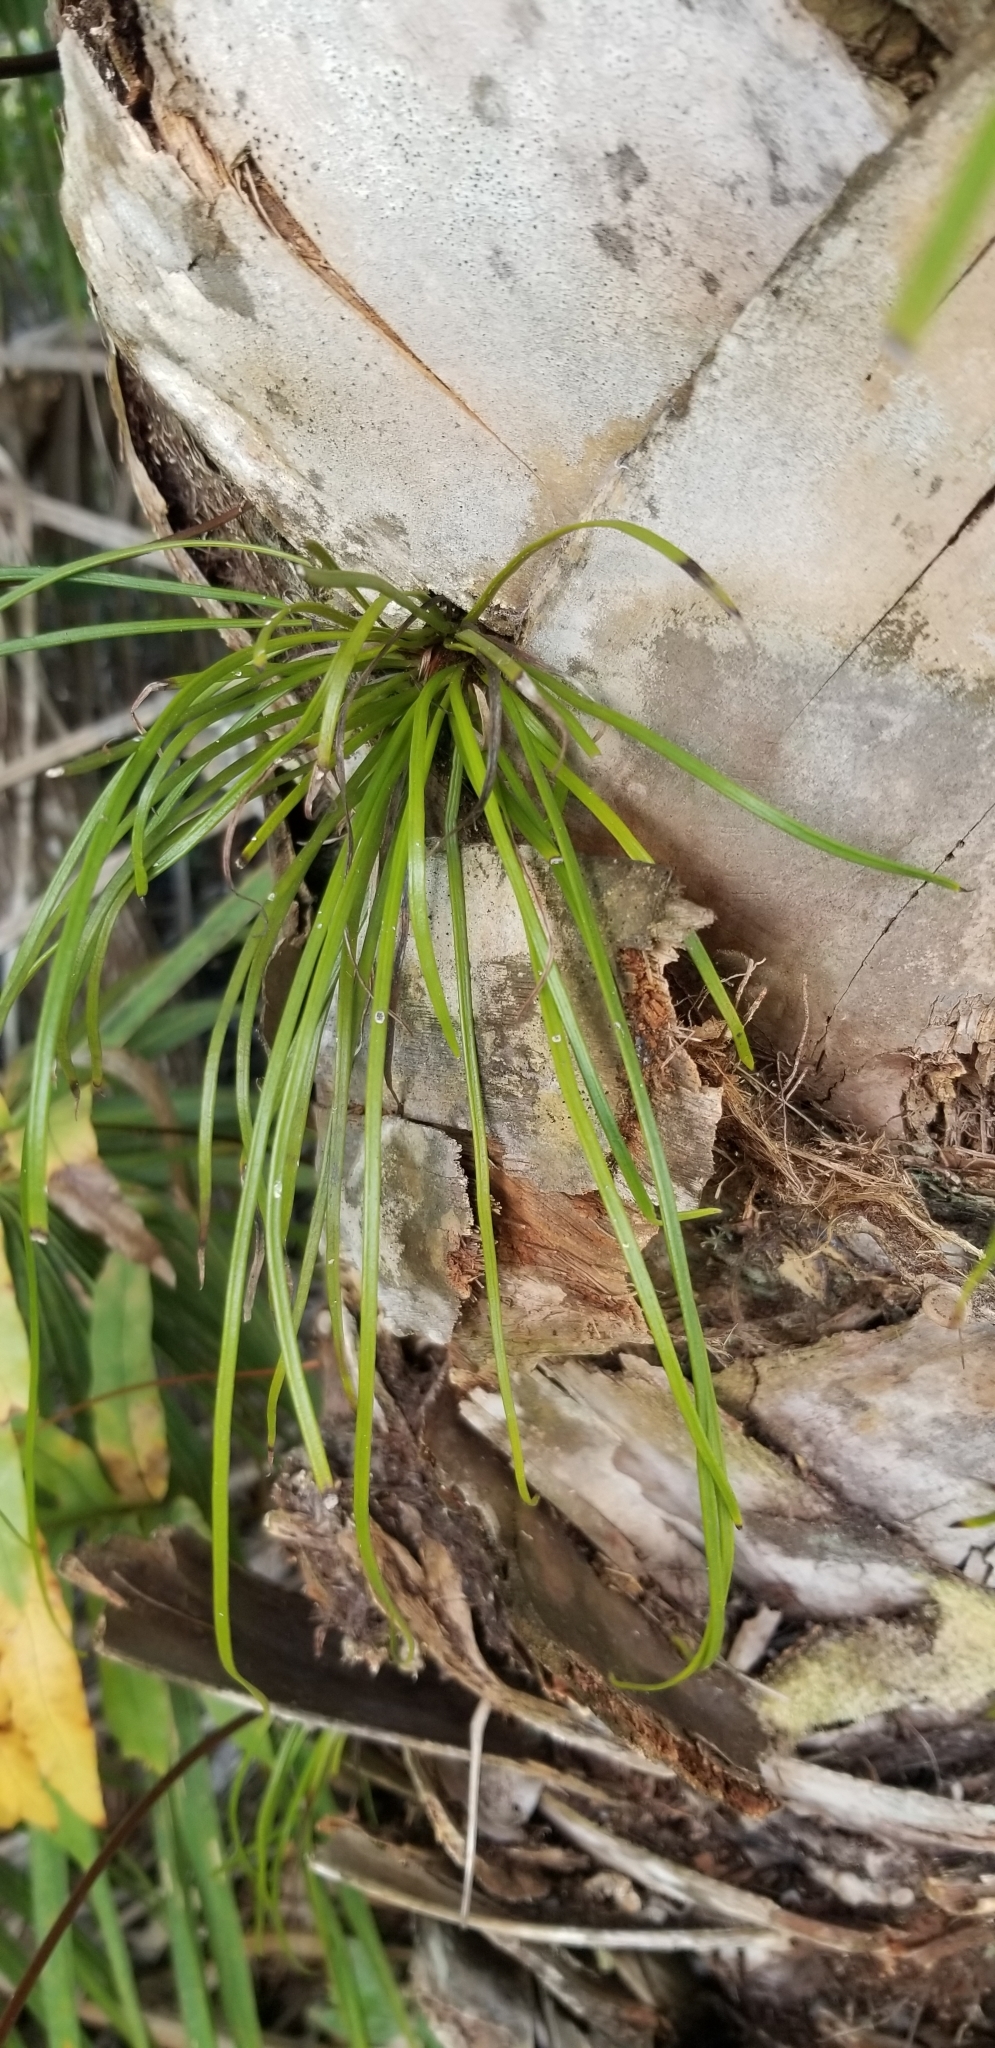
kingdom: Plantae
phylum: Tracheophyta
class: Polypodiopsida
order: Polypodiales
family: Pteridaceae
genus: Vittaria
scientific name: Vittaria lineata
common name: Shoestring fern
